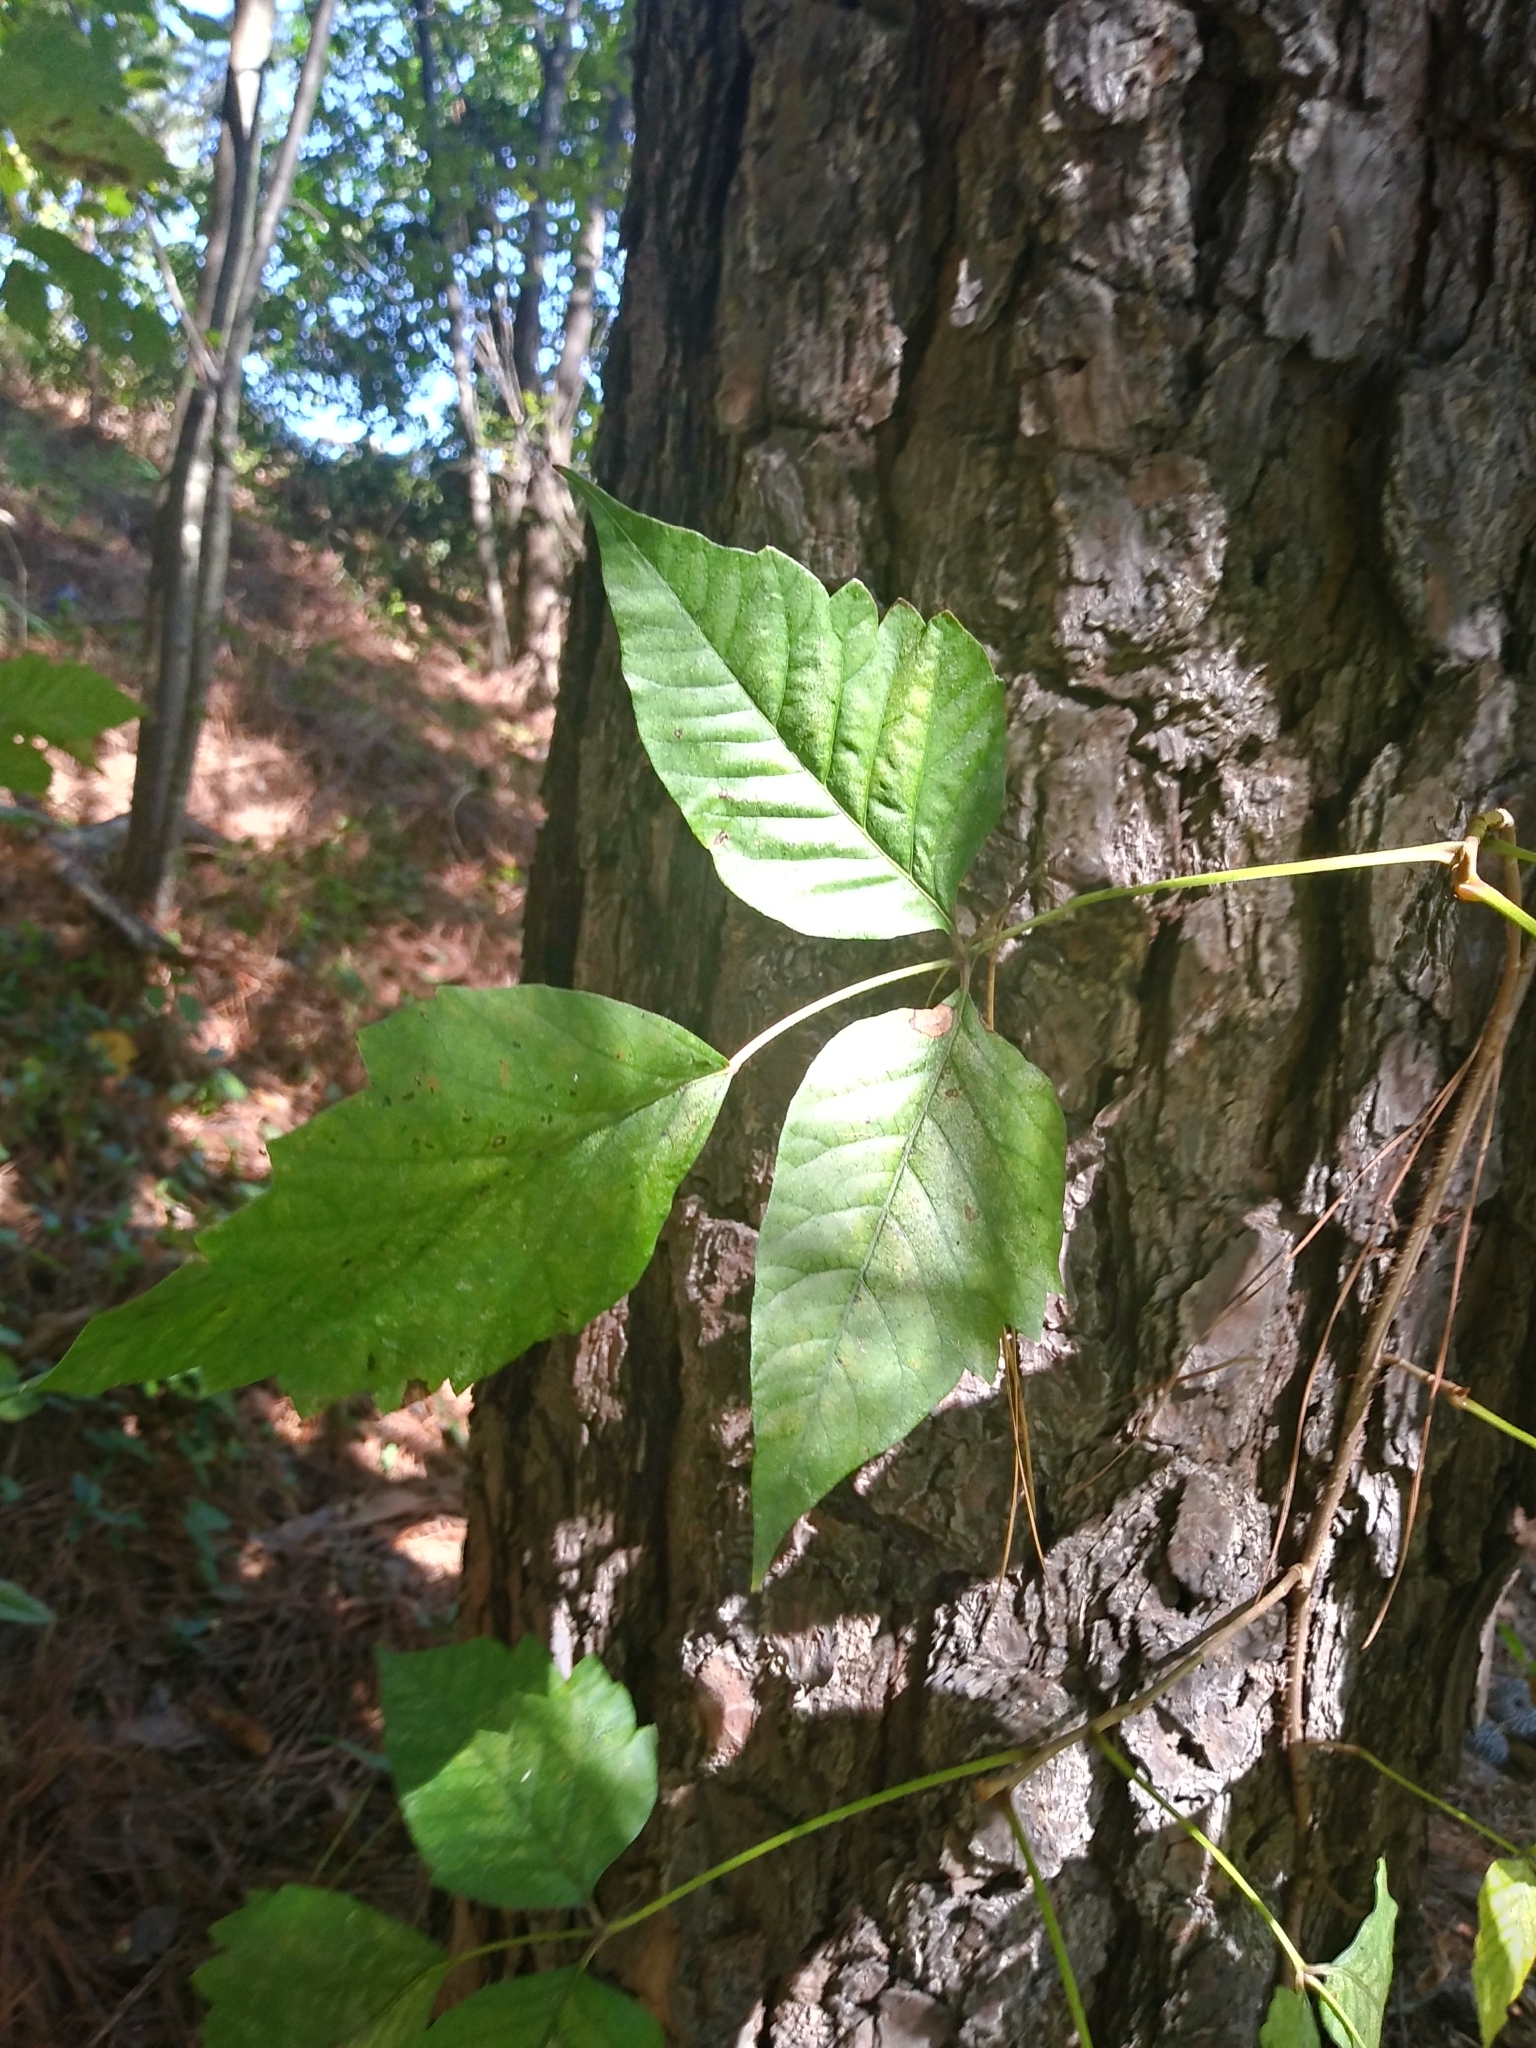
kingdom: Plantae
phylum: Tracheophyta
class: Magnoliopsida
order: Sapindales
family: Anacardiaceae
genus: Toxicodendron
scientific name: Toxicodendron radicans
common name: Poison ivy
